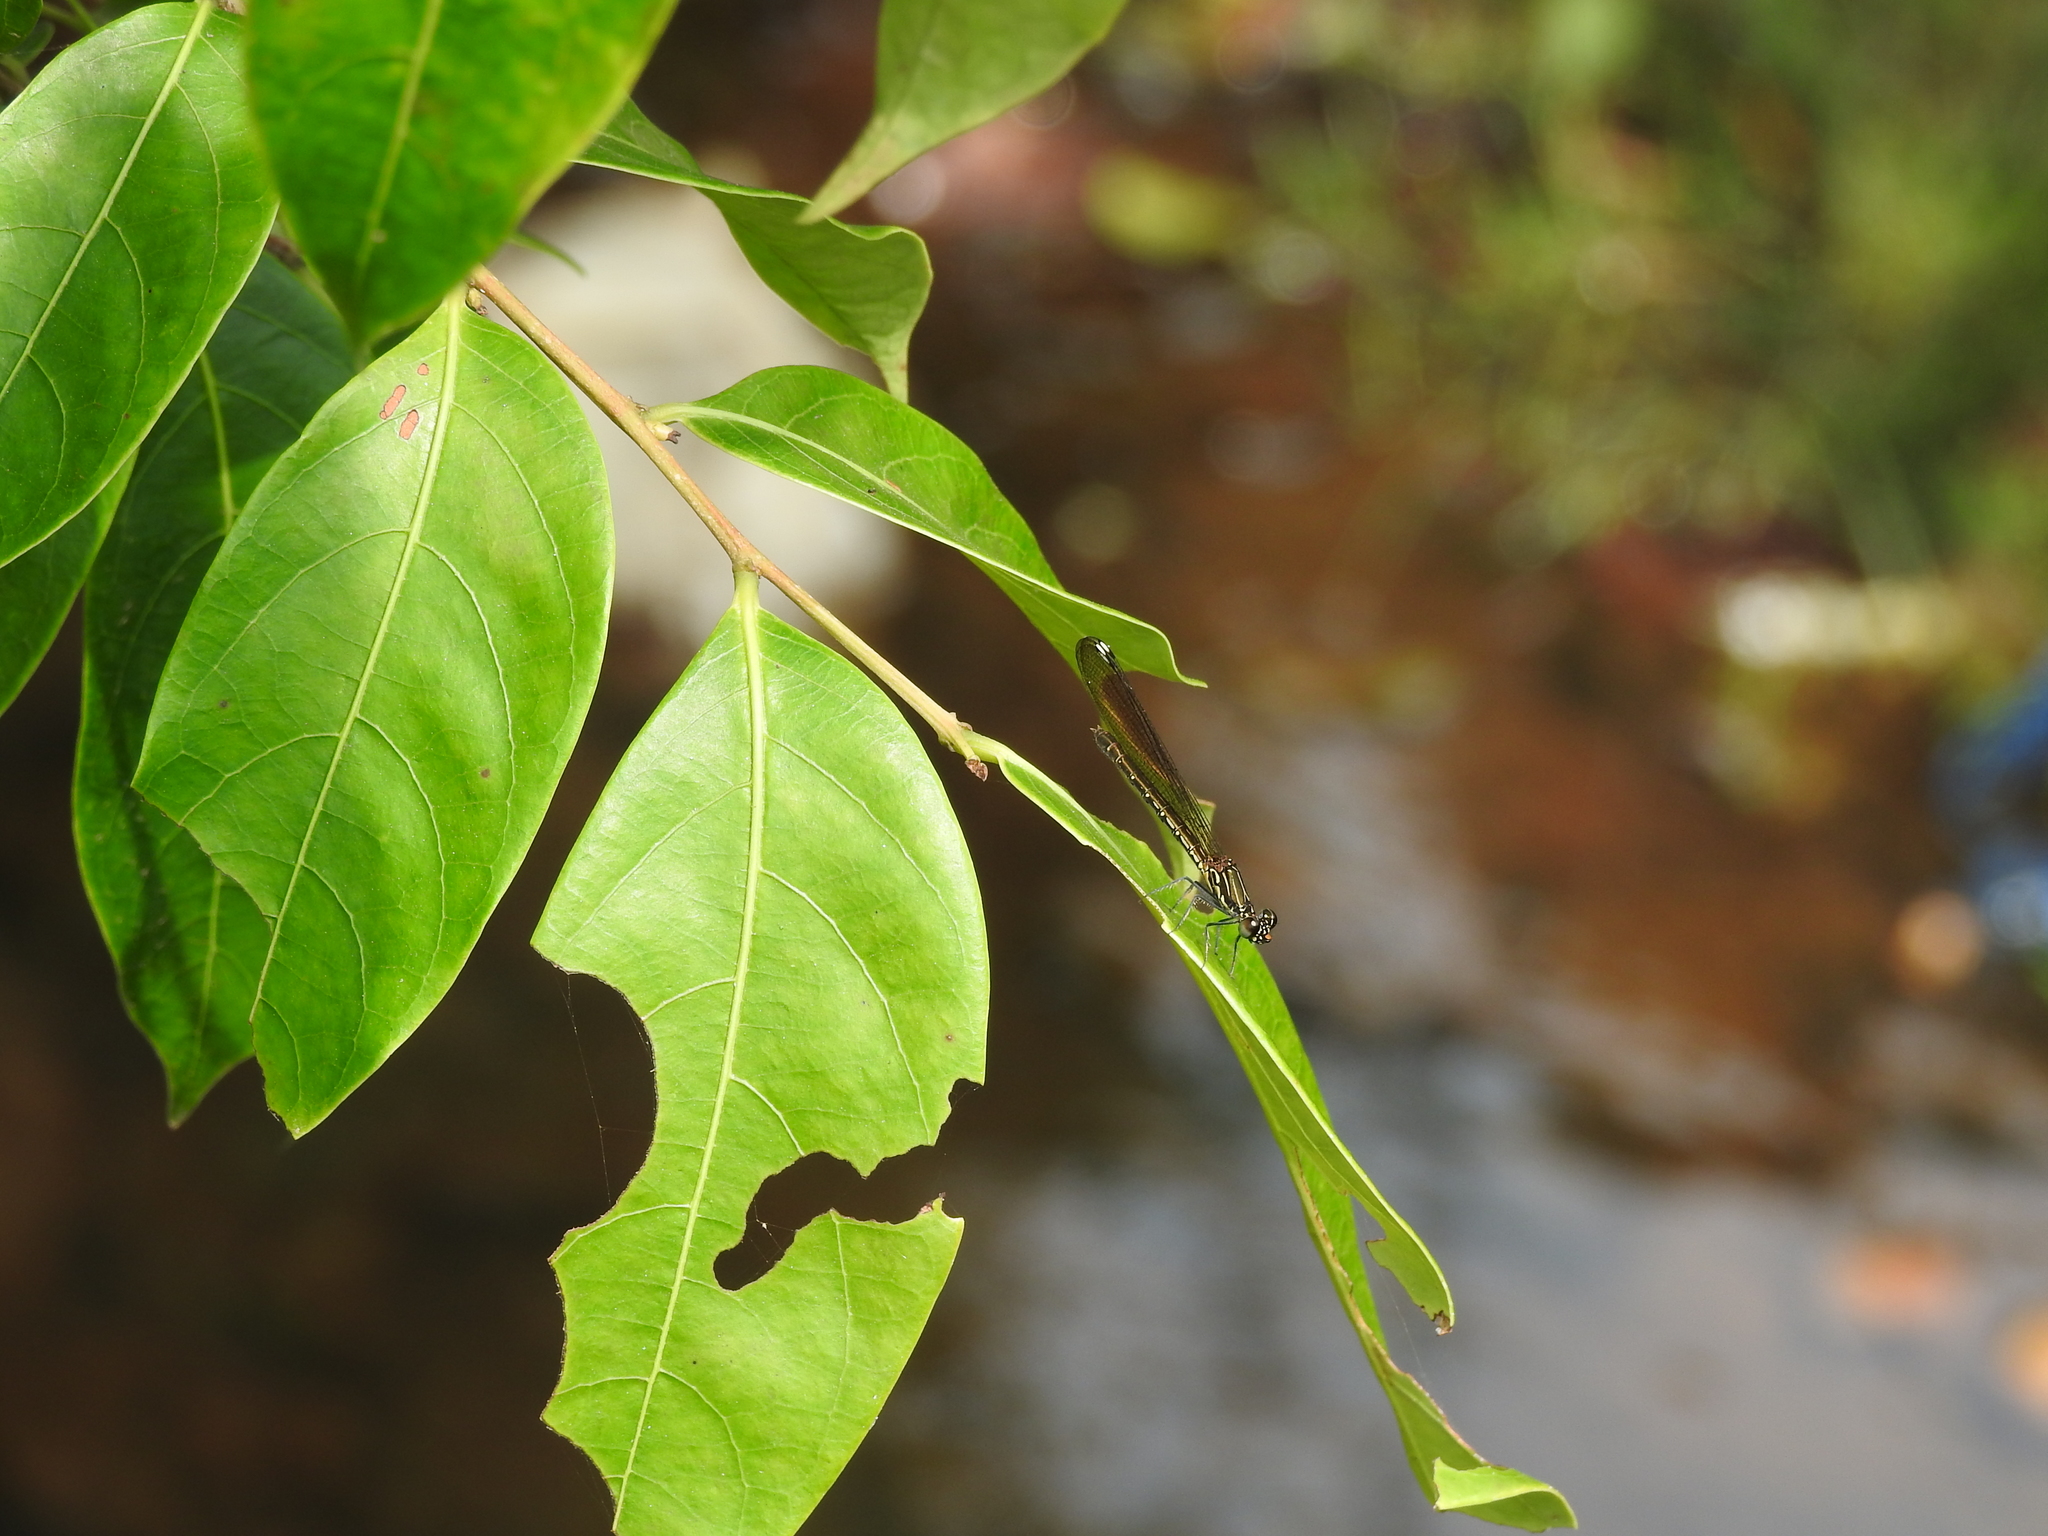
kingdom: Animalia
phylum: Arthropoda
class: Insecta
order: Odonata
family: Chlorocyphidae
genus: Heliocypha
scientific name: Heliocypha bisignata
